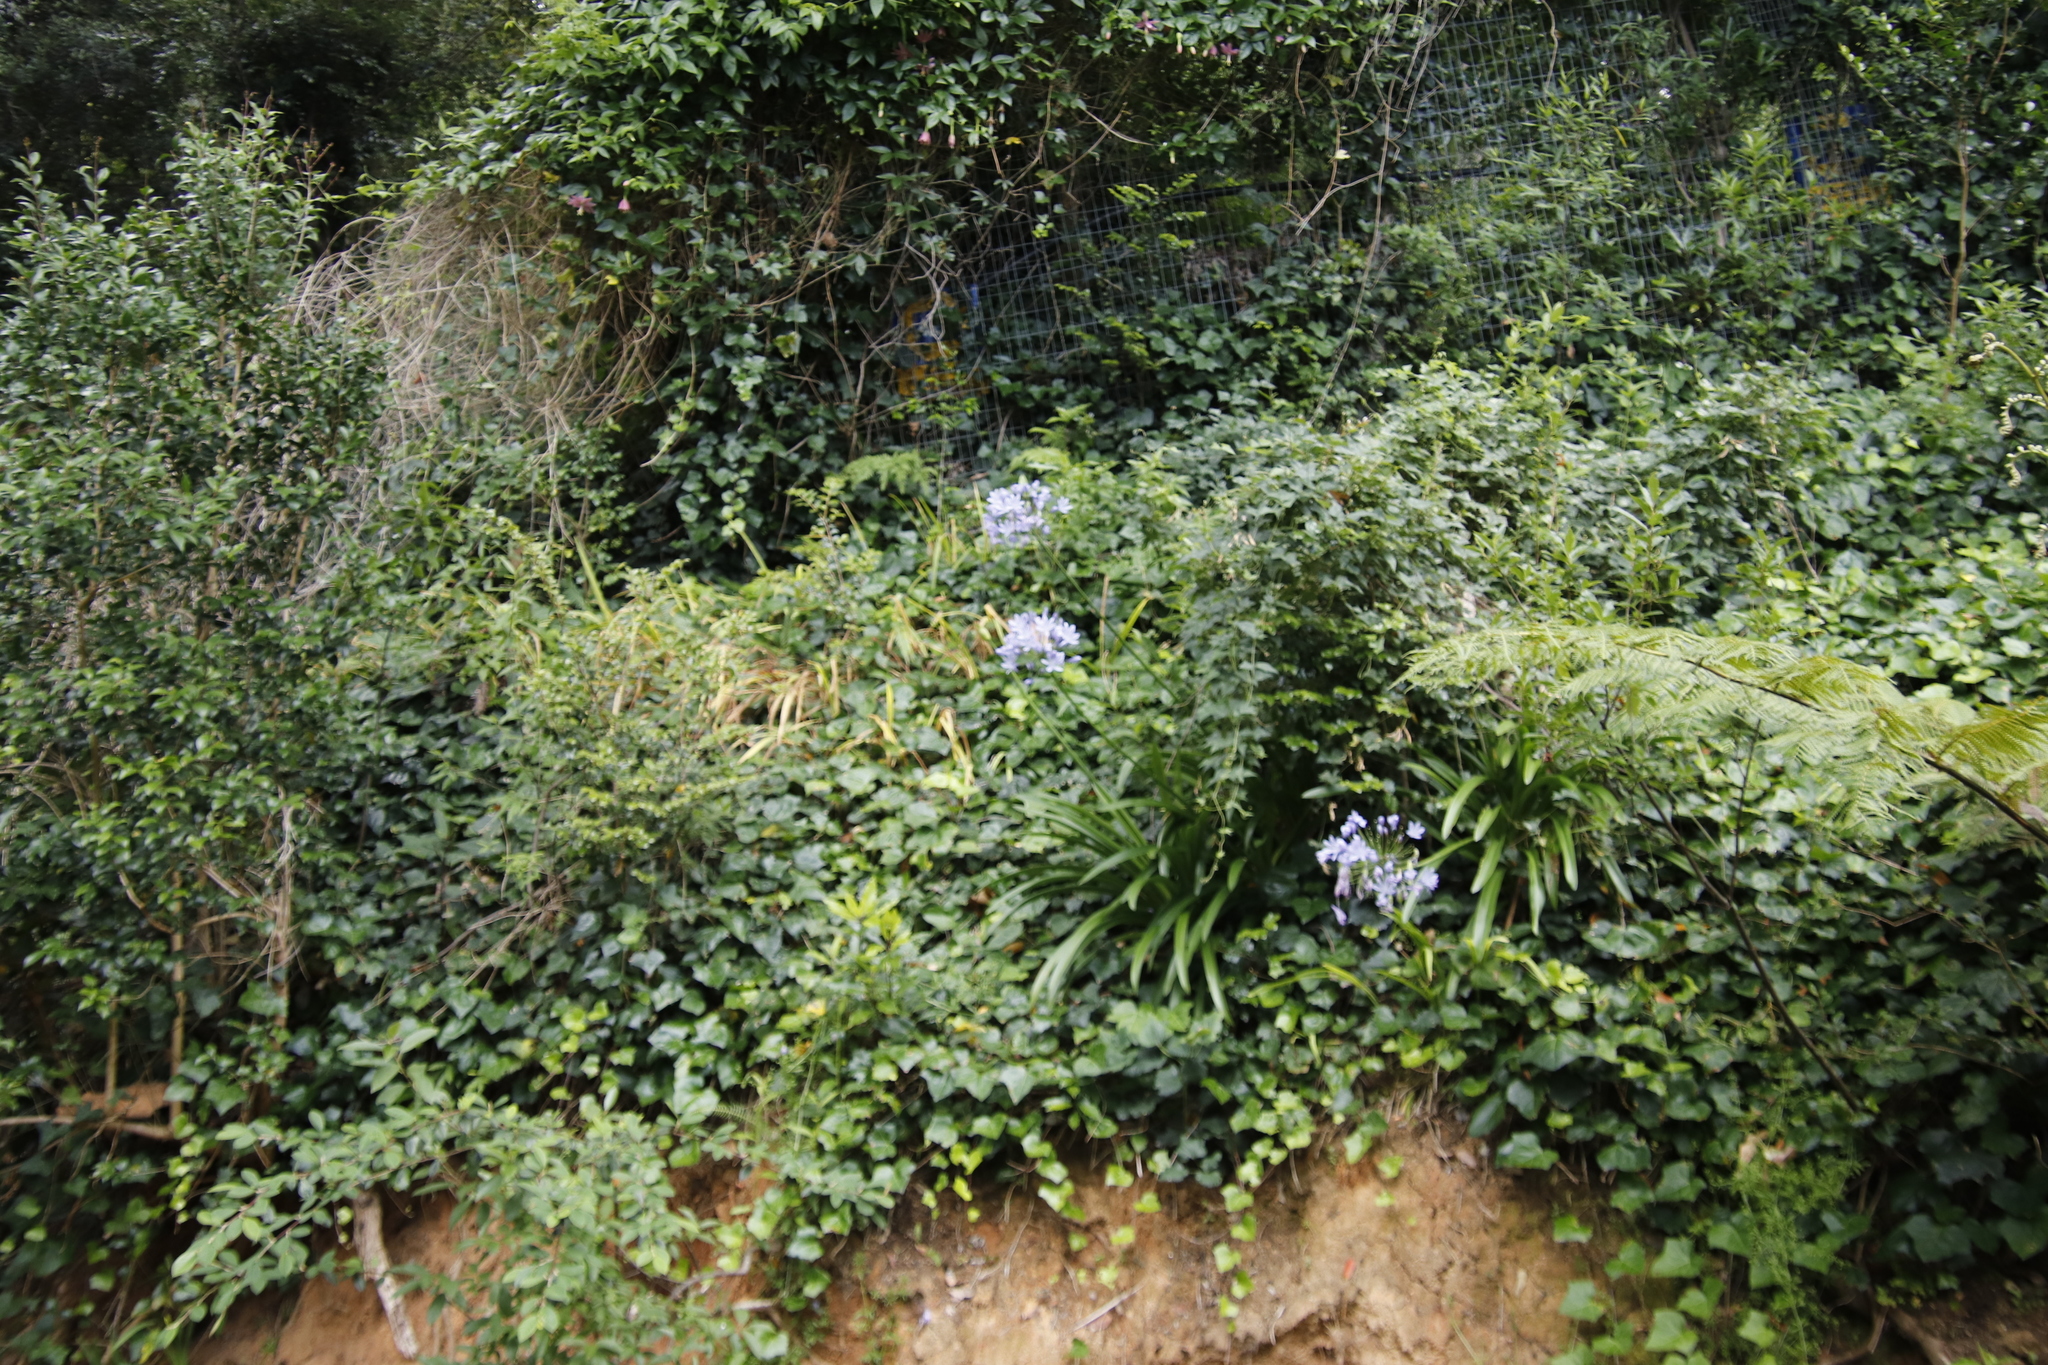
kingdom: Plantae
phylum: Tracheophyta
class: Liliopsida
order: Asparagales
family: Amaryllidaceae
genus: Agapanthus
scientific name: Agapanthus praecox
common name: African-lily
